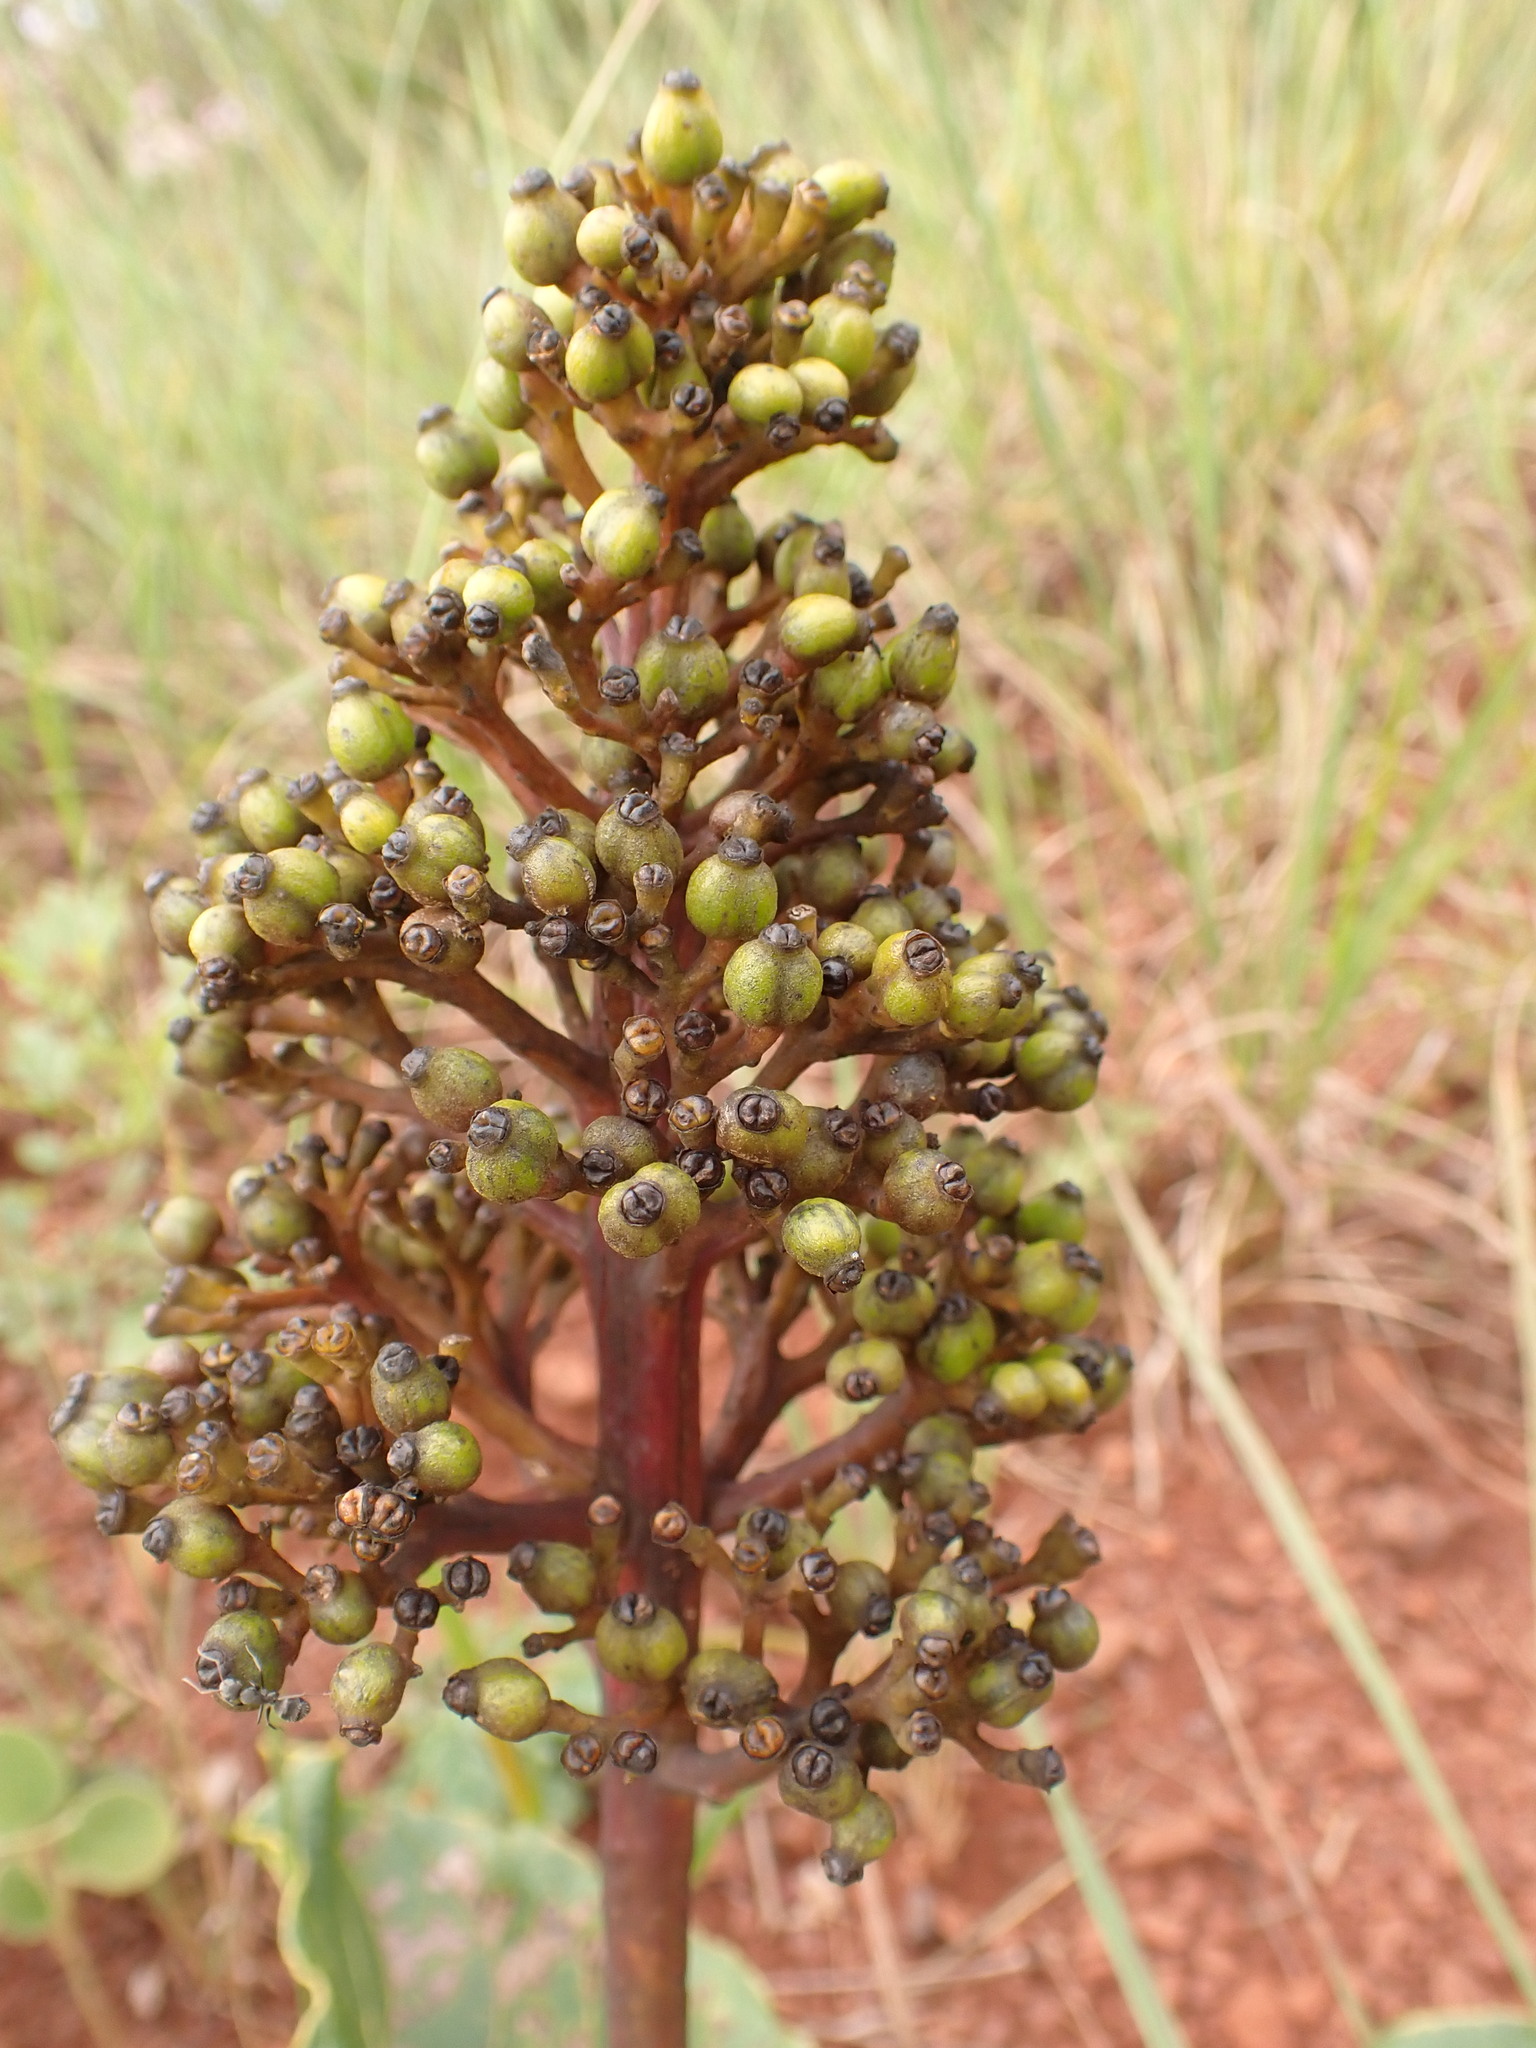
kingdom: Plantae
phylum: Tracheophyta
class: Magnoliopsida
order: Gentianales
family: Rubiaceae
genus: Palicourea
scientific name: Palicourea rigida
